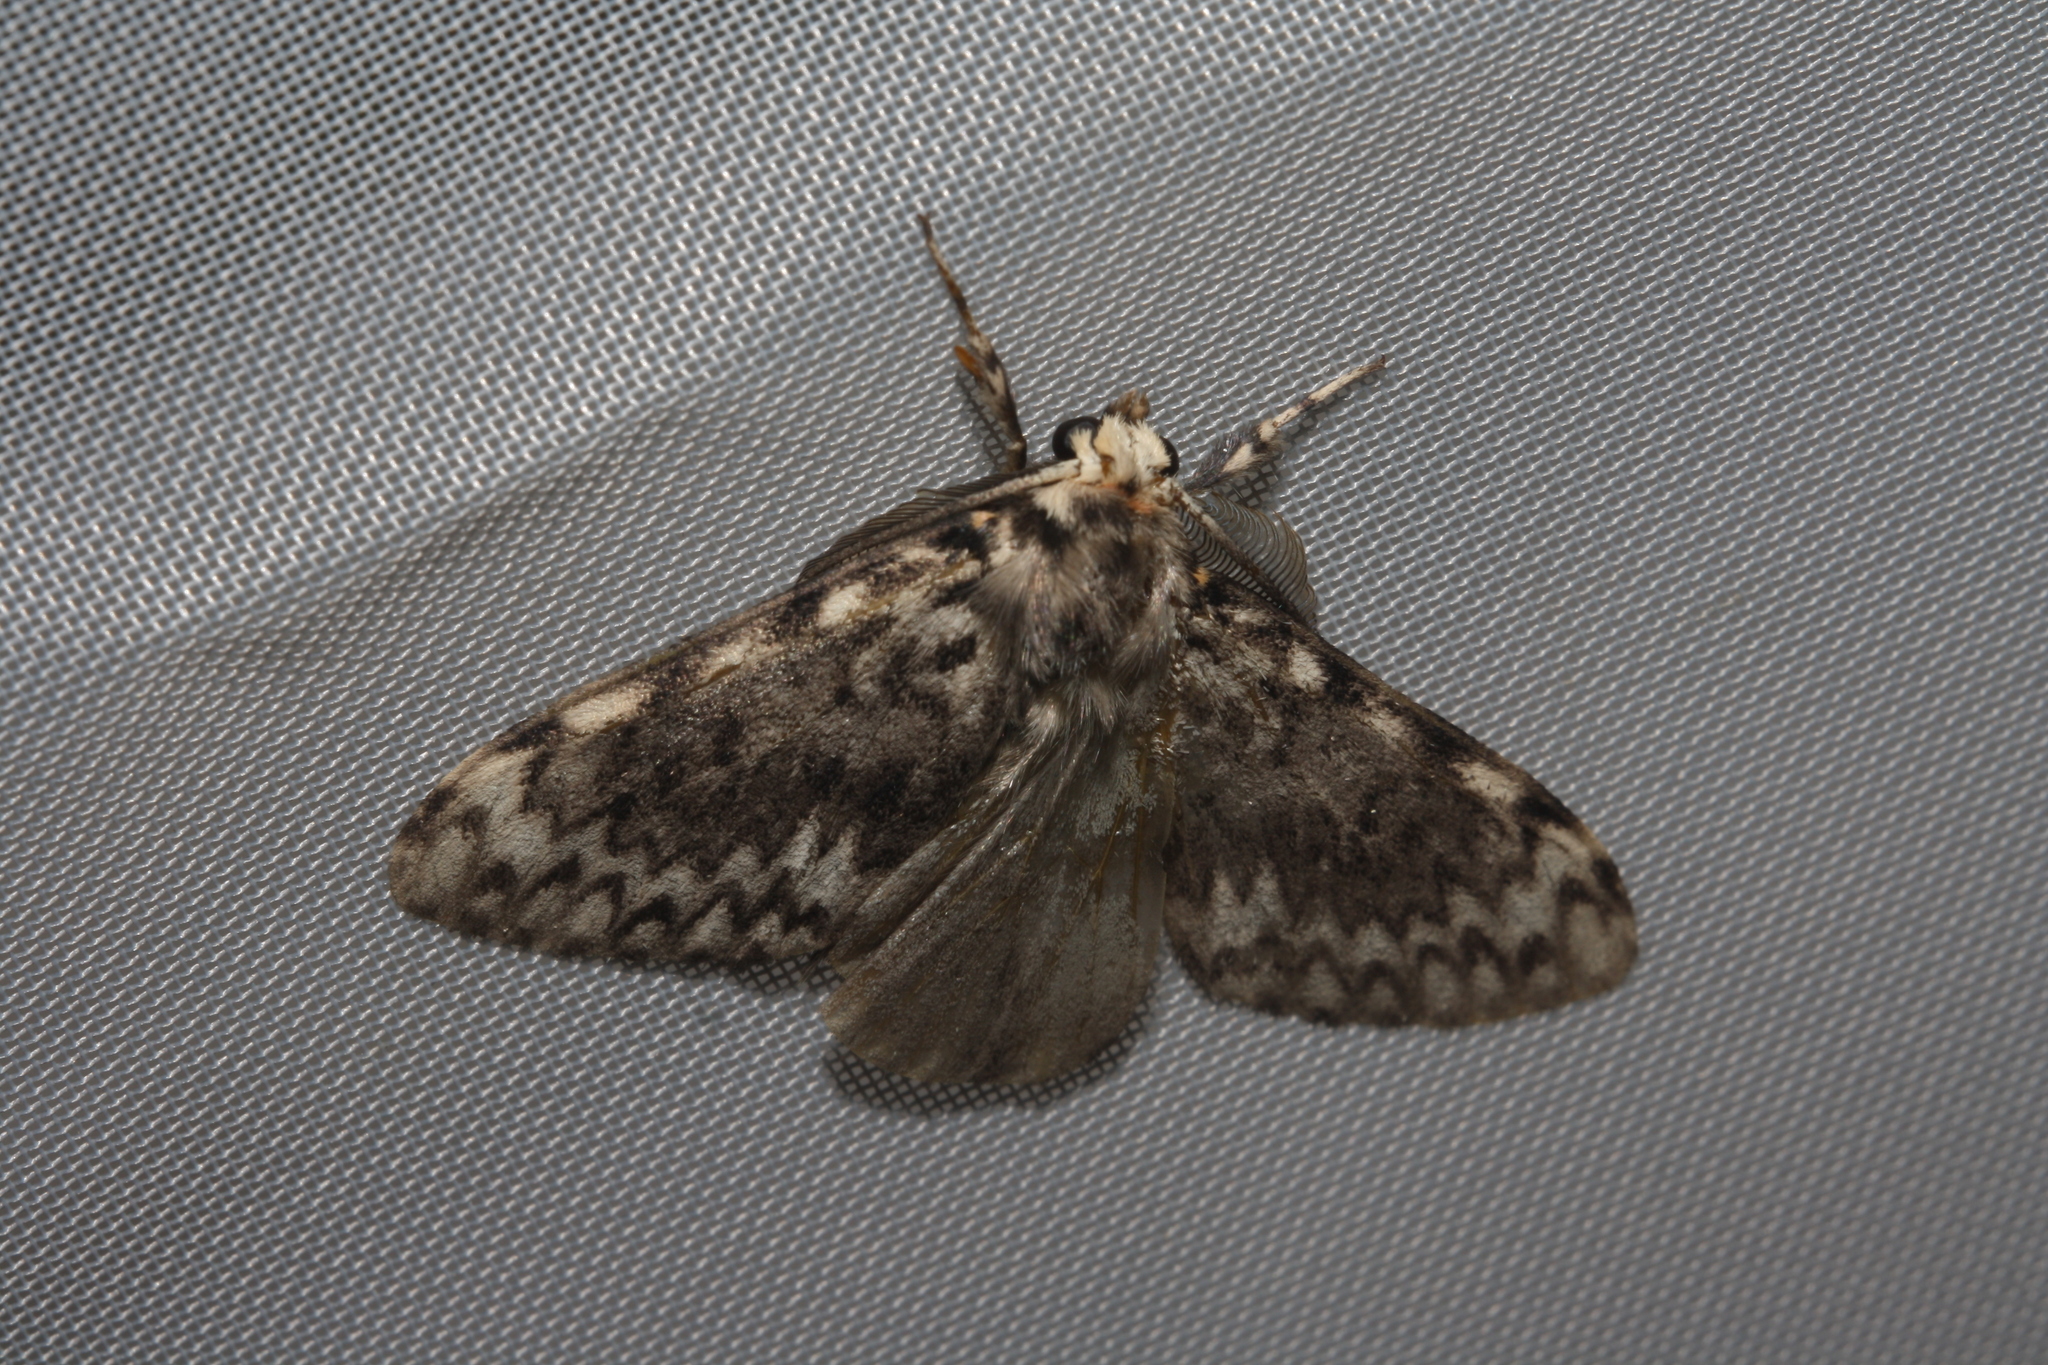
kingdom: Animalia
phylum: Arthropoda
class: Insecta
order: Lepidoptera
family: Erebidae
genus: Lymantria
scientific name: Lymantria monacha
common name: Black arches
